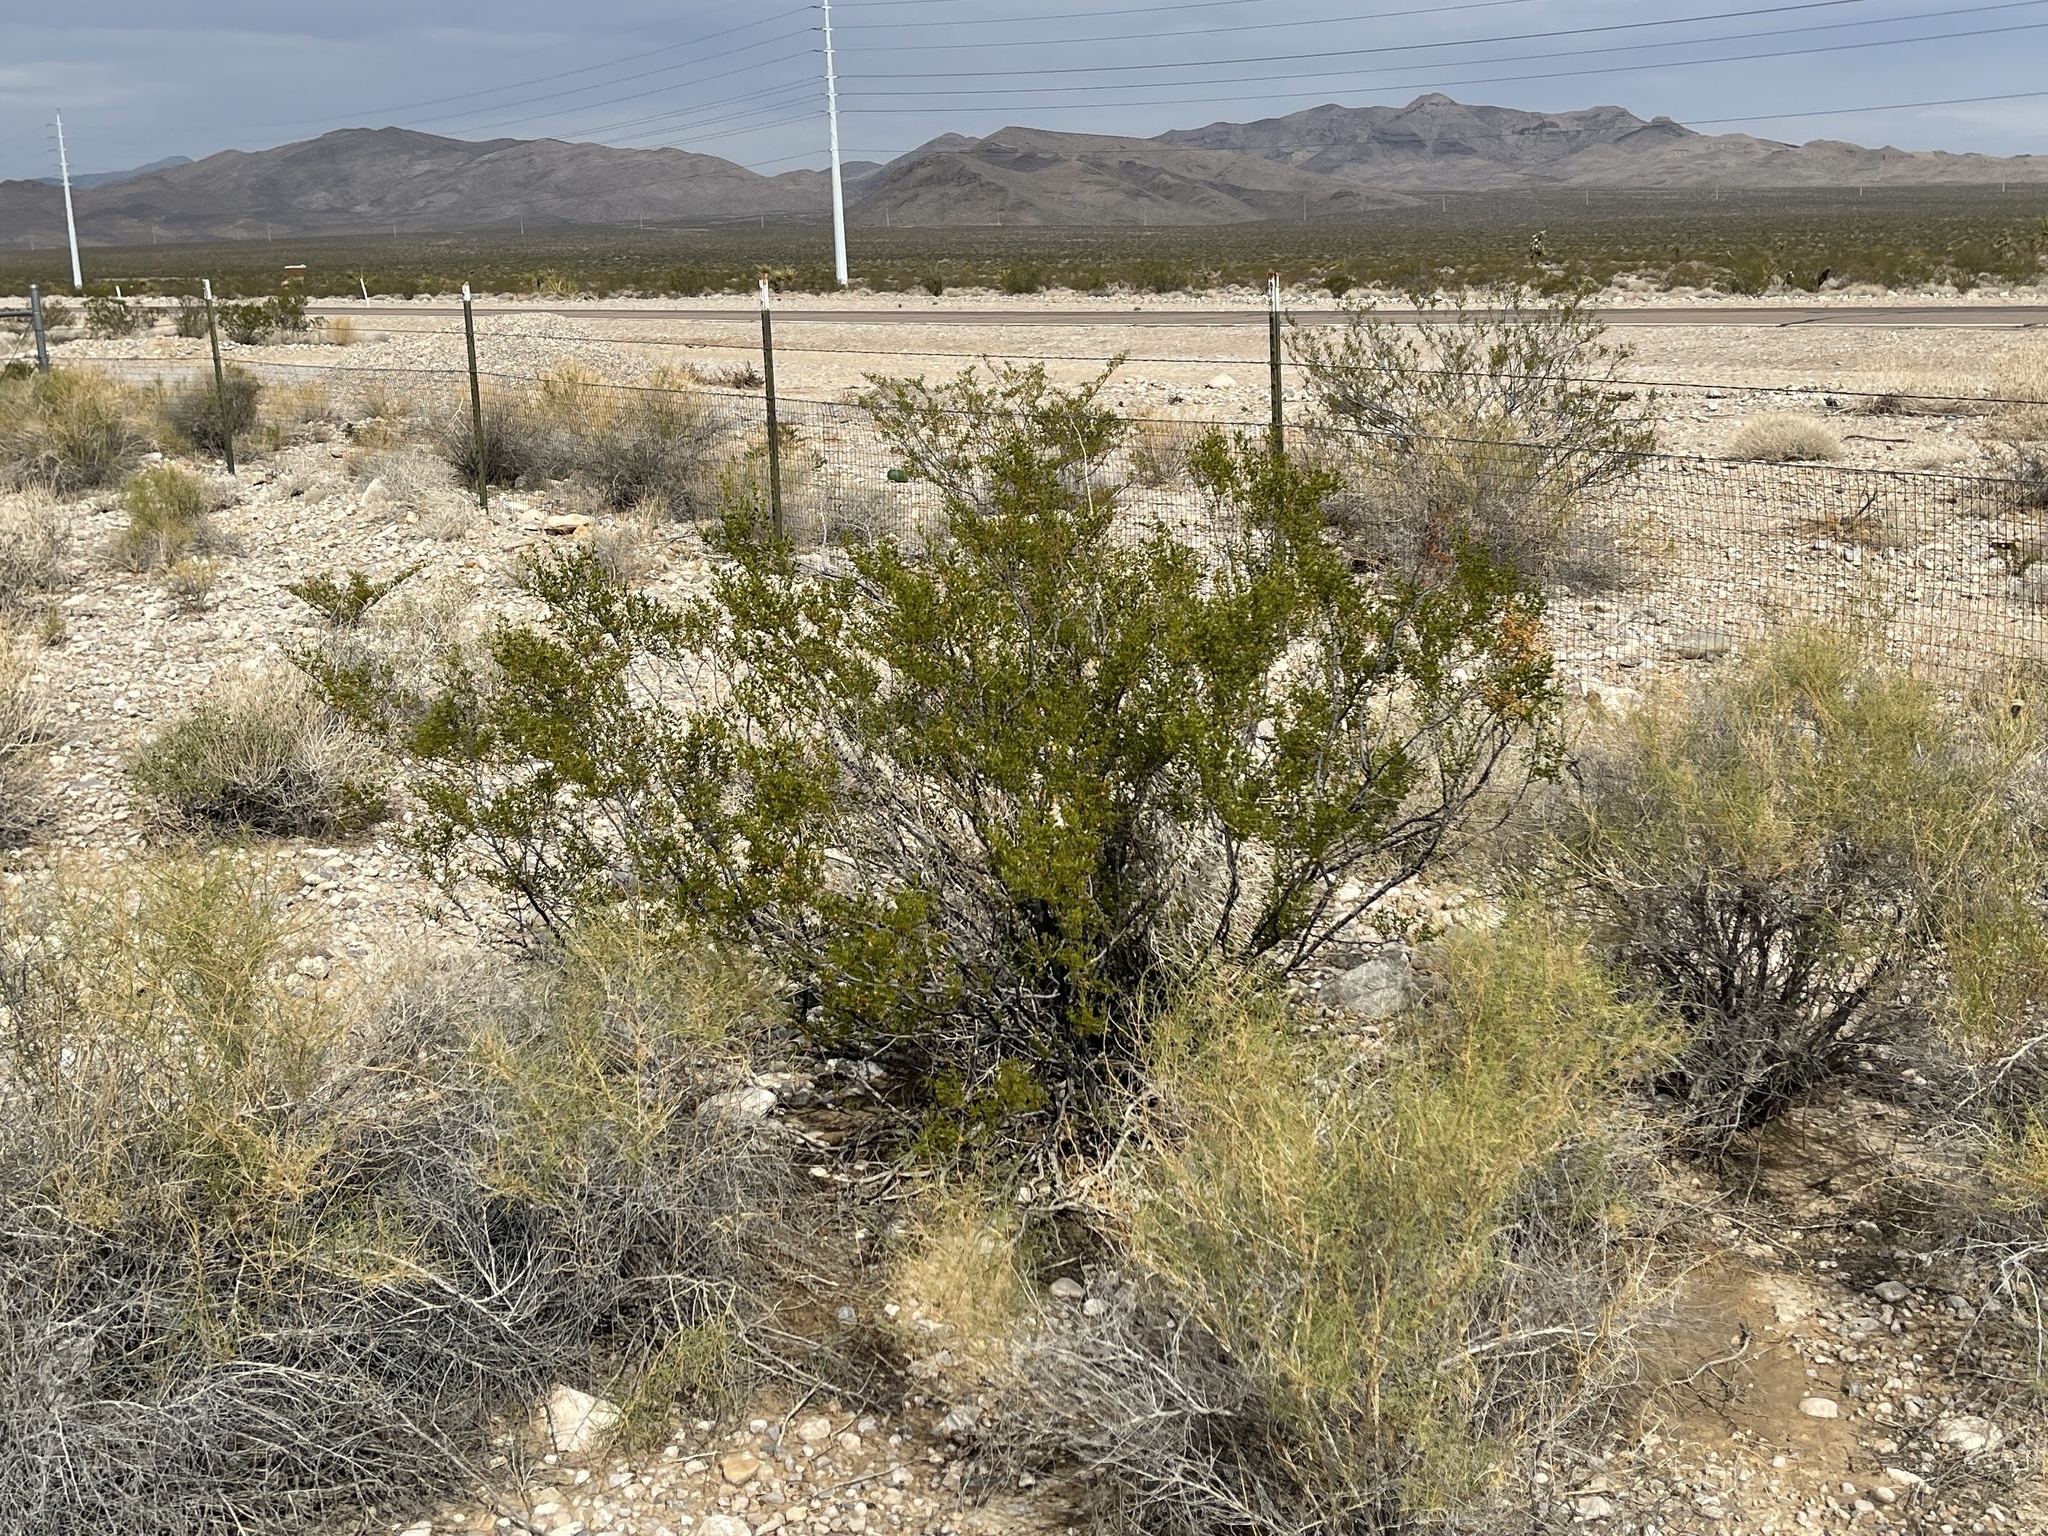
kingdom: Plantae
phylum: Tracheophyta
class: Magnoliopsida
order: Zygophyllales
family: Zygophyllaceae
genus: Larrea
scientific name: Larrea tridentata
